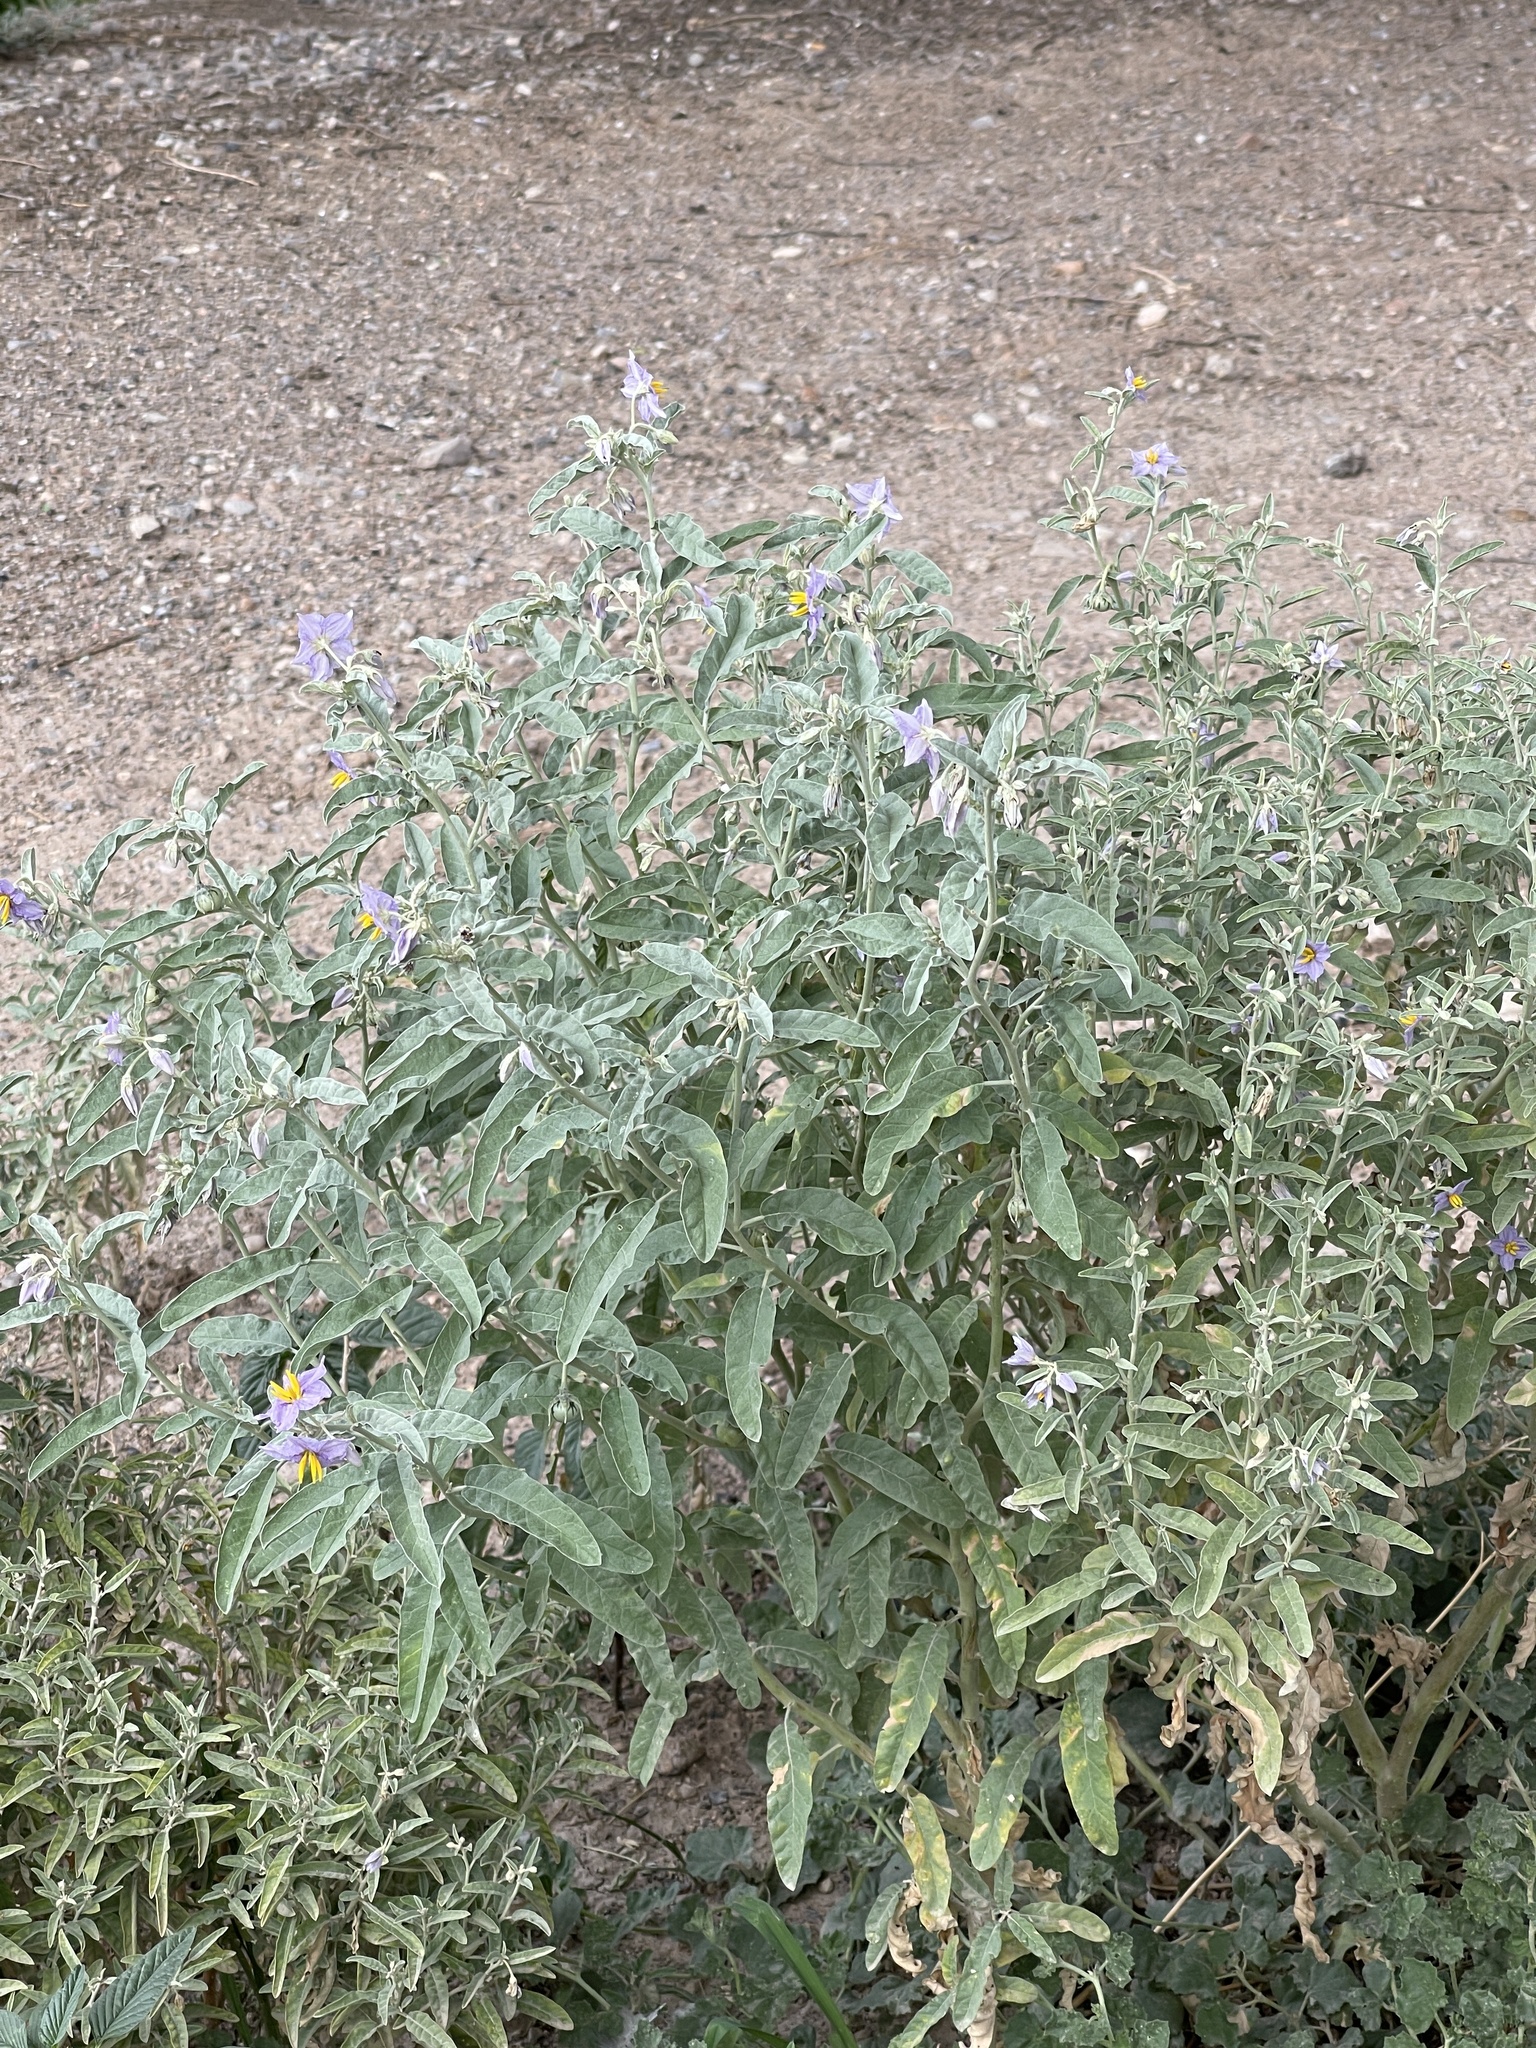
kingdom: Plantae
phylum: Tracheophyta
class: Magnoliopsida
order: Solanales
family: Solanaceae
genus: Solanum
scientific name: Solanum elaeagnifolium
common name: Silverleaf nightshade
